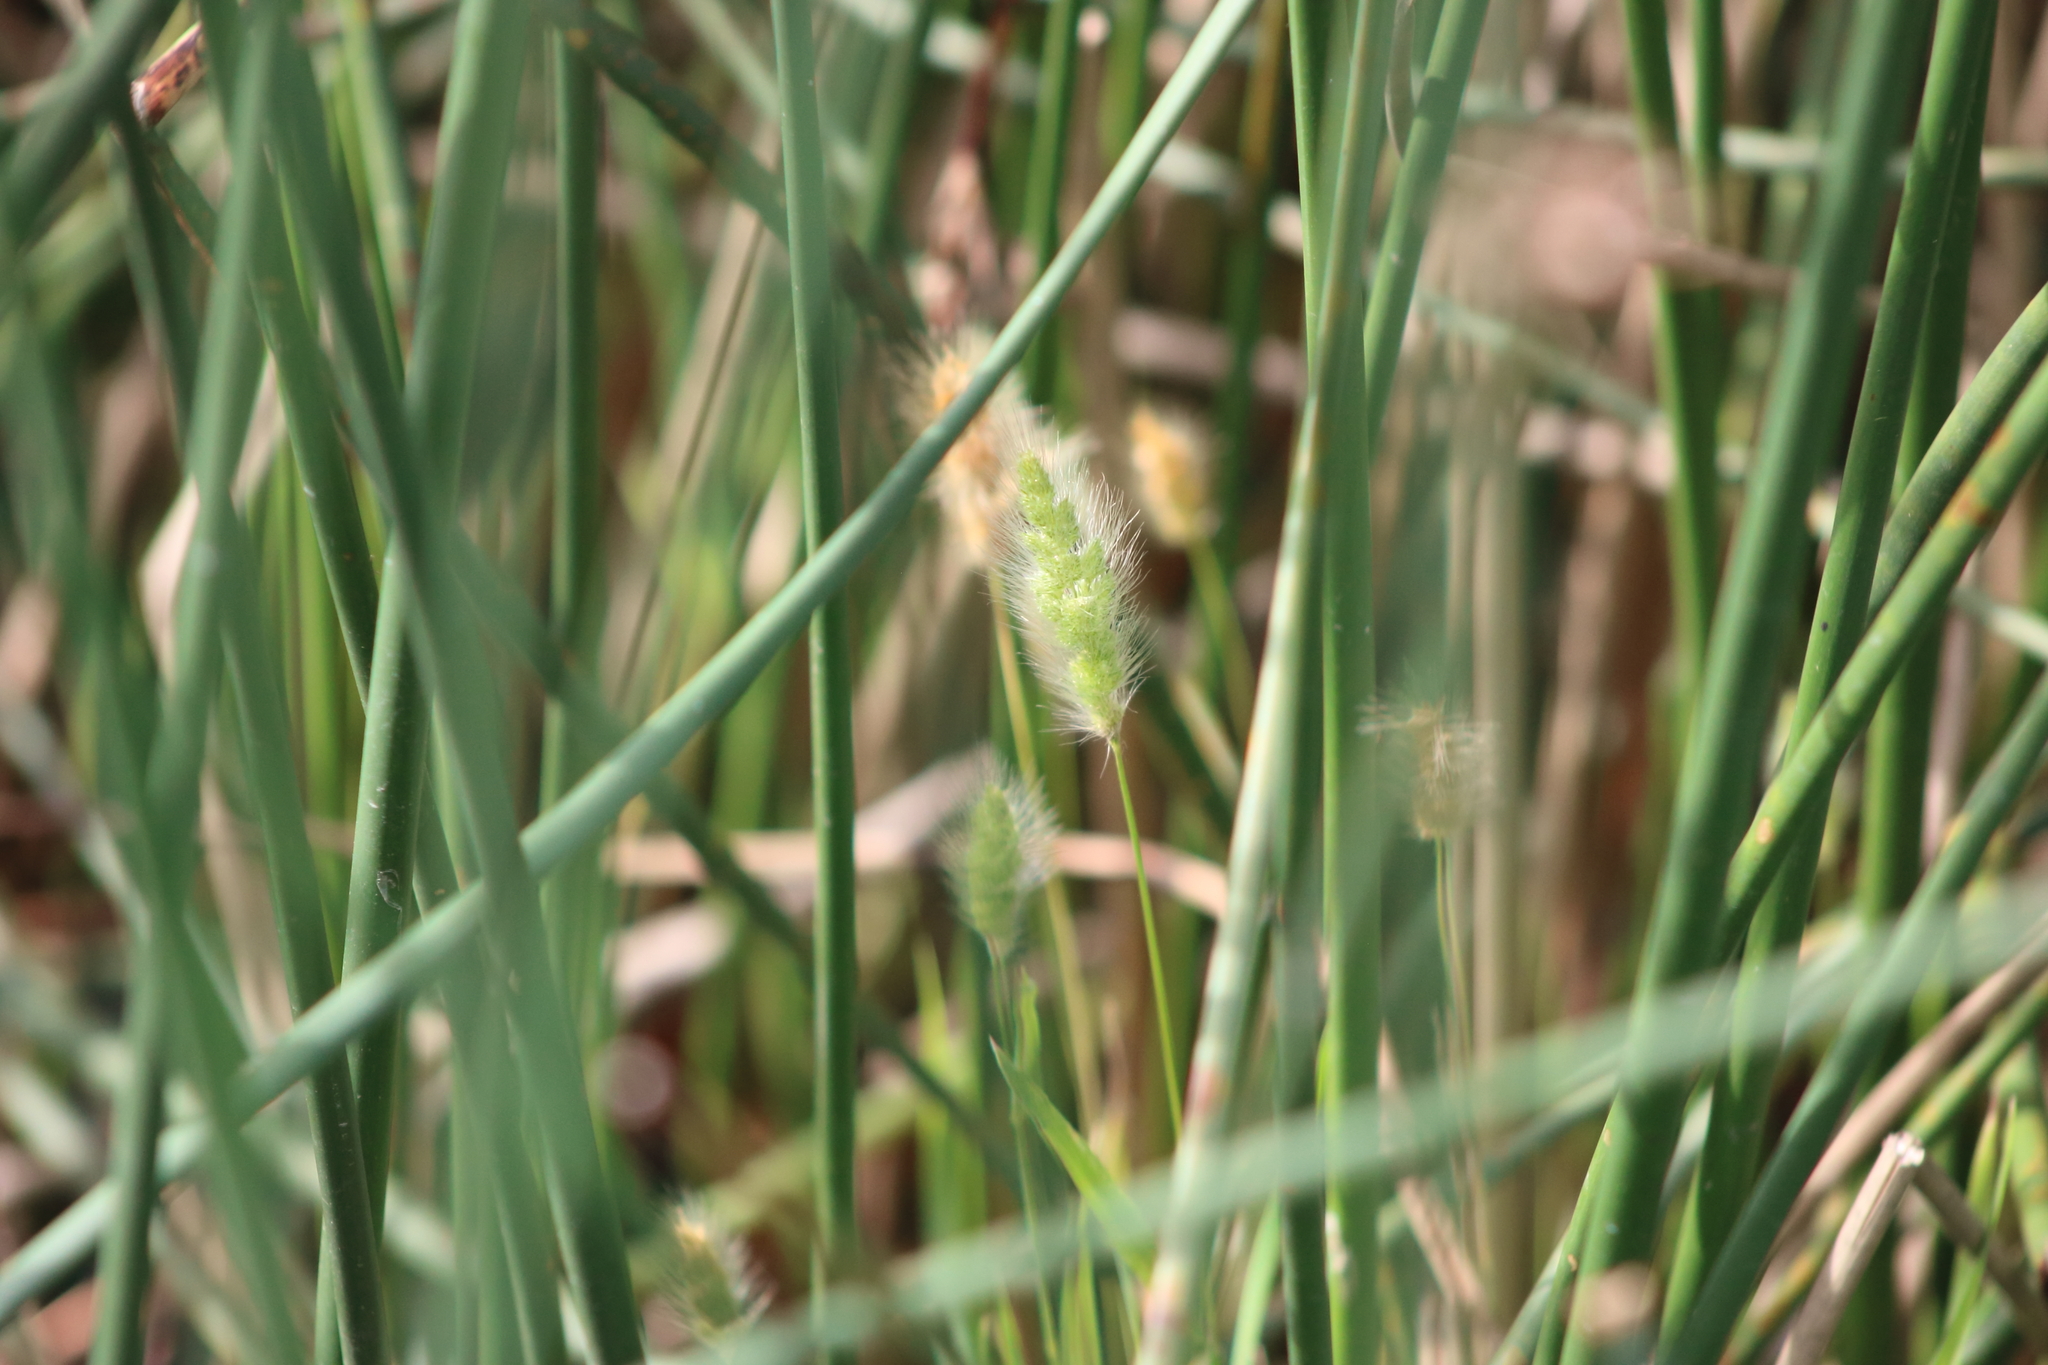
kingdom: Plantae
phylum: Tracheophyta
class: Liliopsida
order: Poales
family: Poaceae
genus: Polypogon
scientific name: Polypogon monspeliensis
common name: Annual rabbitsfoot grass
